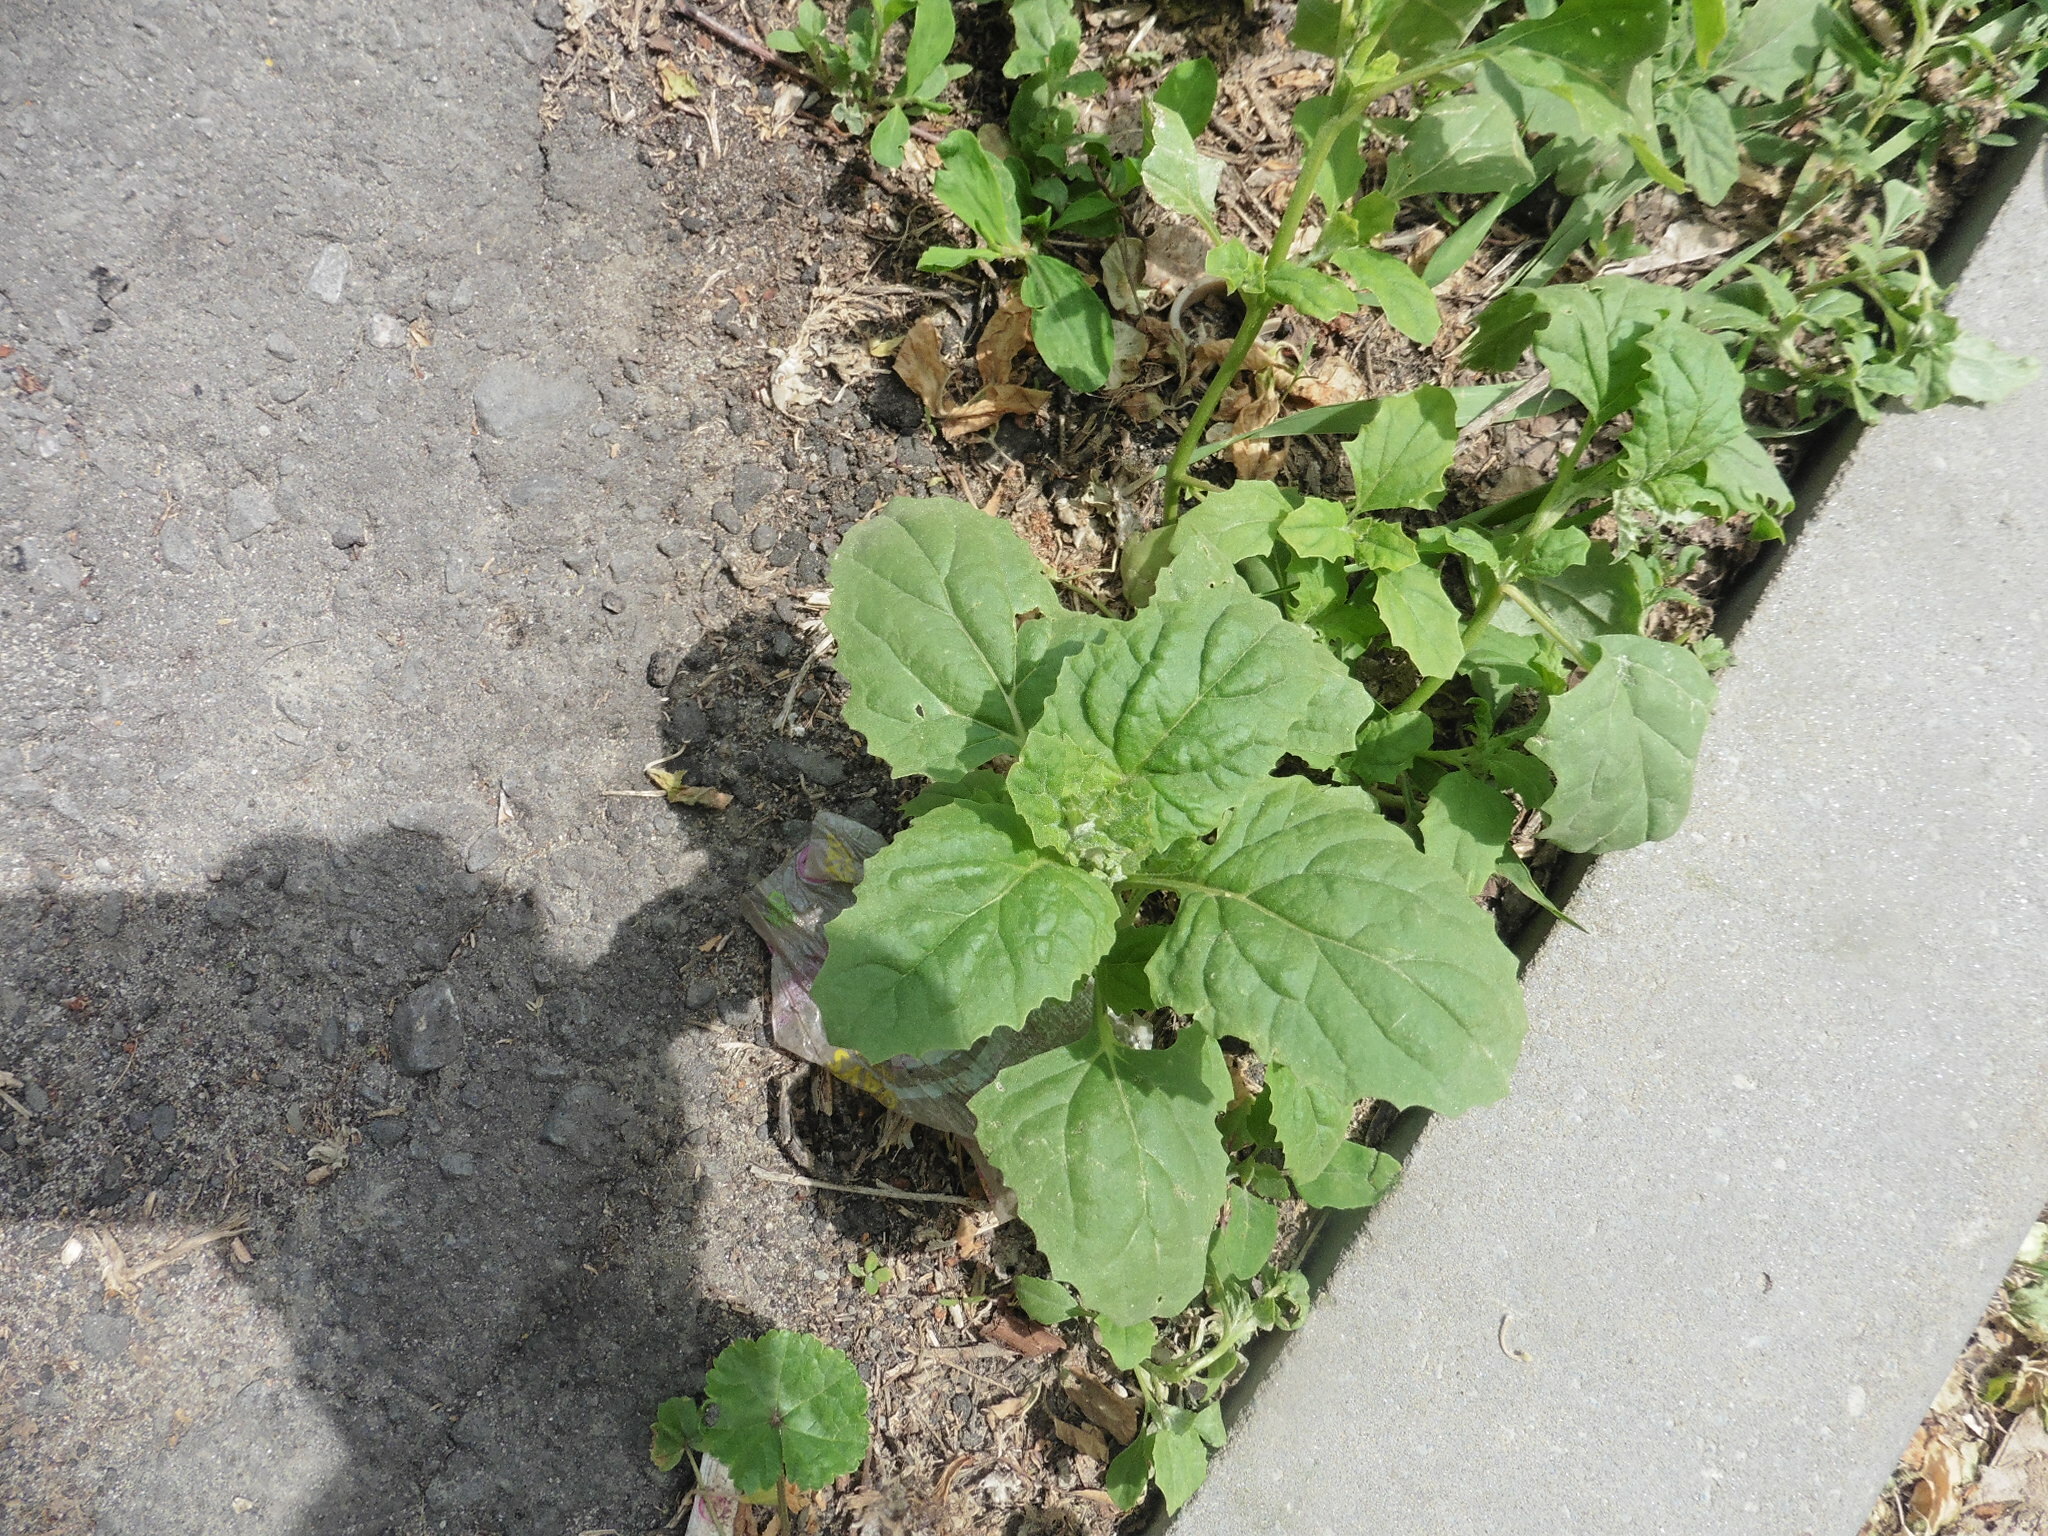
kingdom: Plantae
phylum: Tracheophyta
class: Magnoliopsida
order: Caryophyllales
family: Amaranthaceae
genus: Atriplex
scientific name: Atriplex tatarica
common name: Tatarian orache
